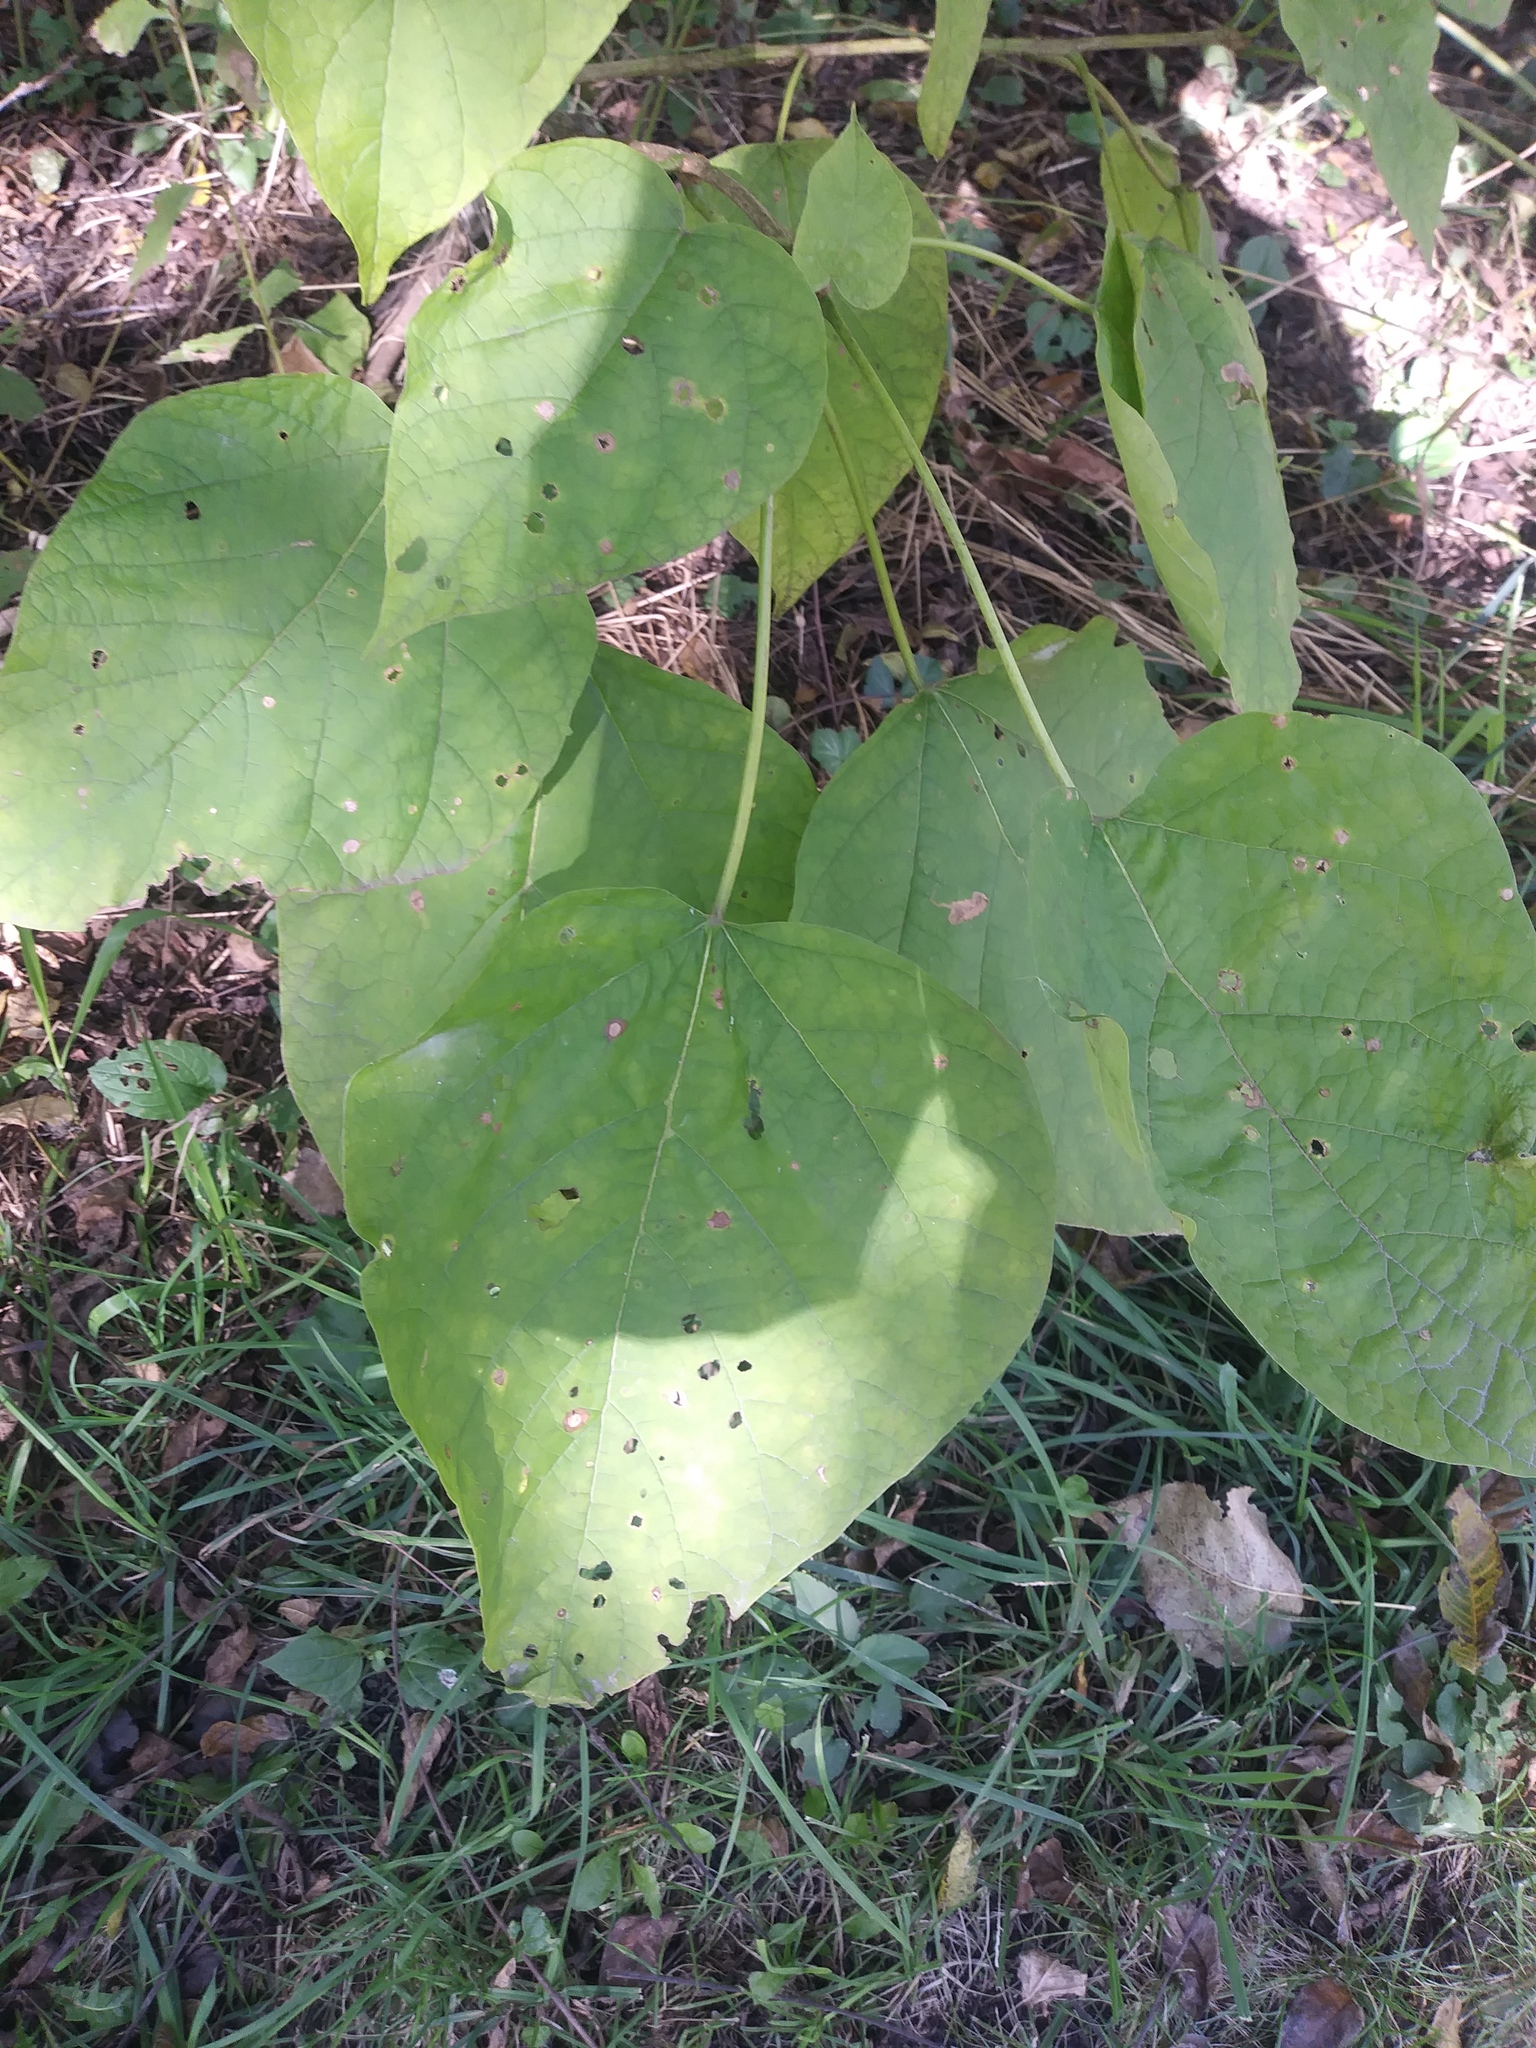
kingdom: Plantae
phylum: Tracheophyta
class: Magnoliopsida
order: Lamiales
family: Bignoniaceae
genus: Catalpa
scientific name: Catalpa speciosa
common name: Northern catalpa
